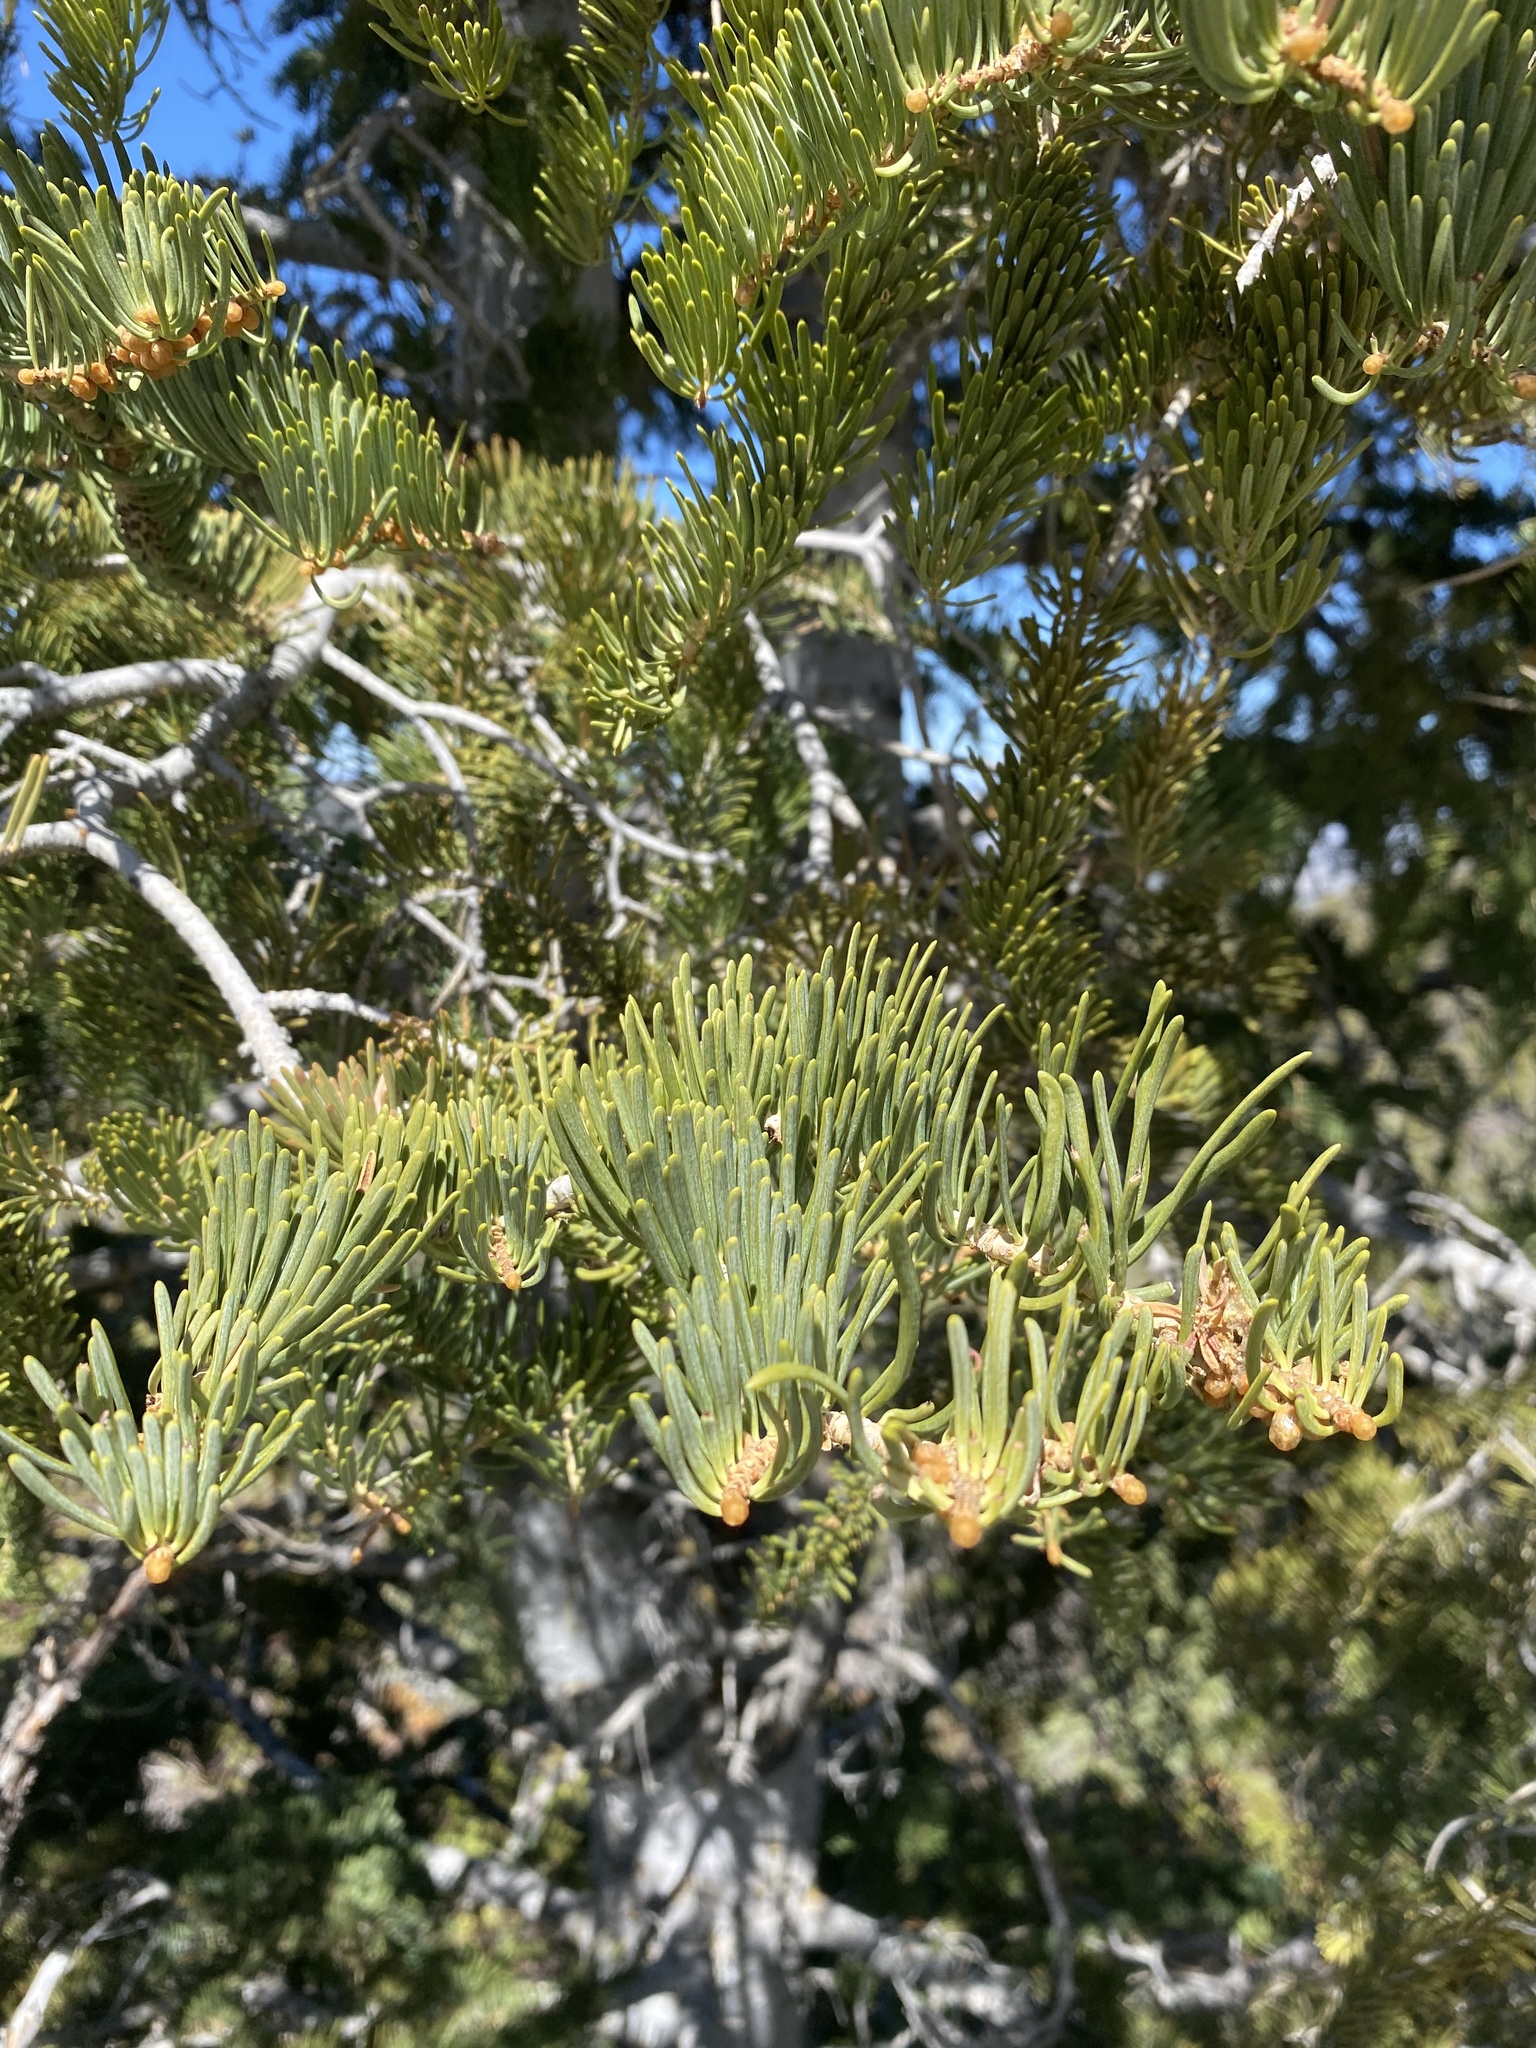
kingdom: Plantae
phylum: Tracheophyta
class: Pinopsida
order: Pinales
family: Pinaceae
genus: Abies
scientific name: Abies concolor
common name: Colorado fir
